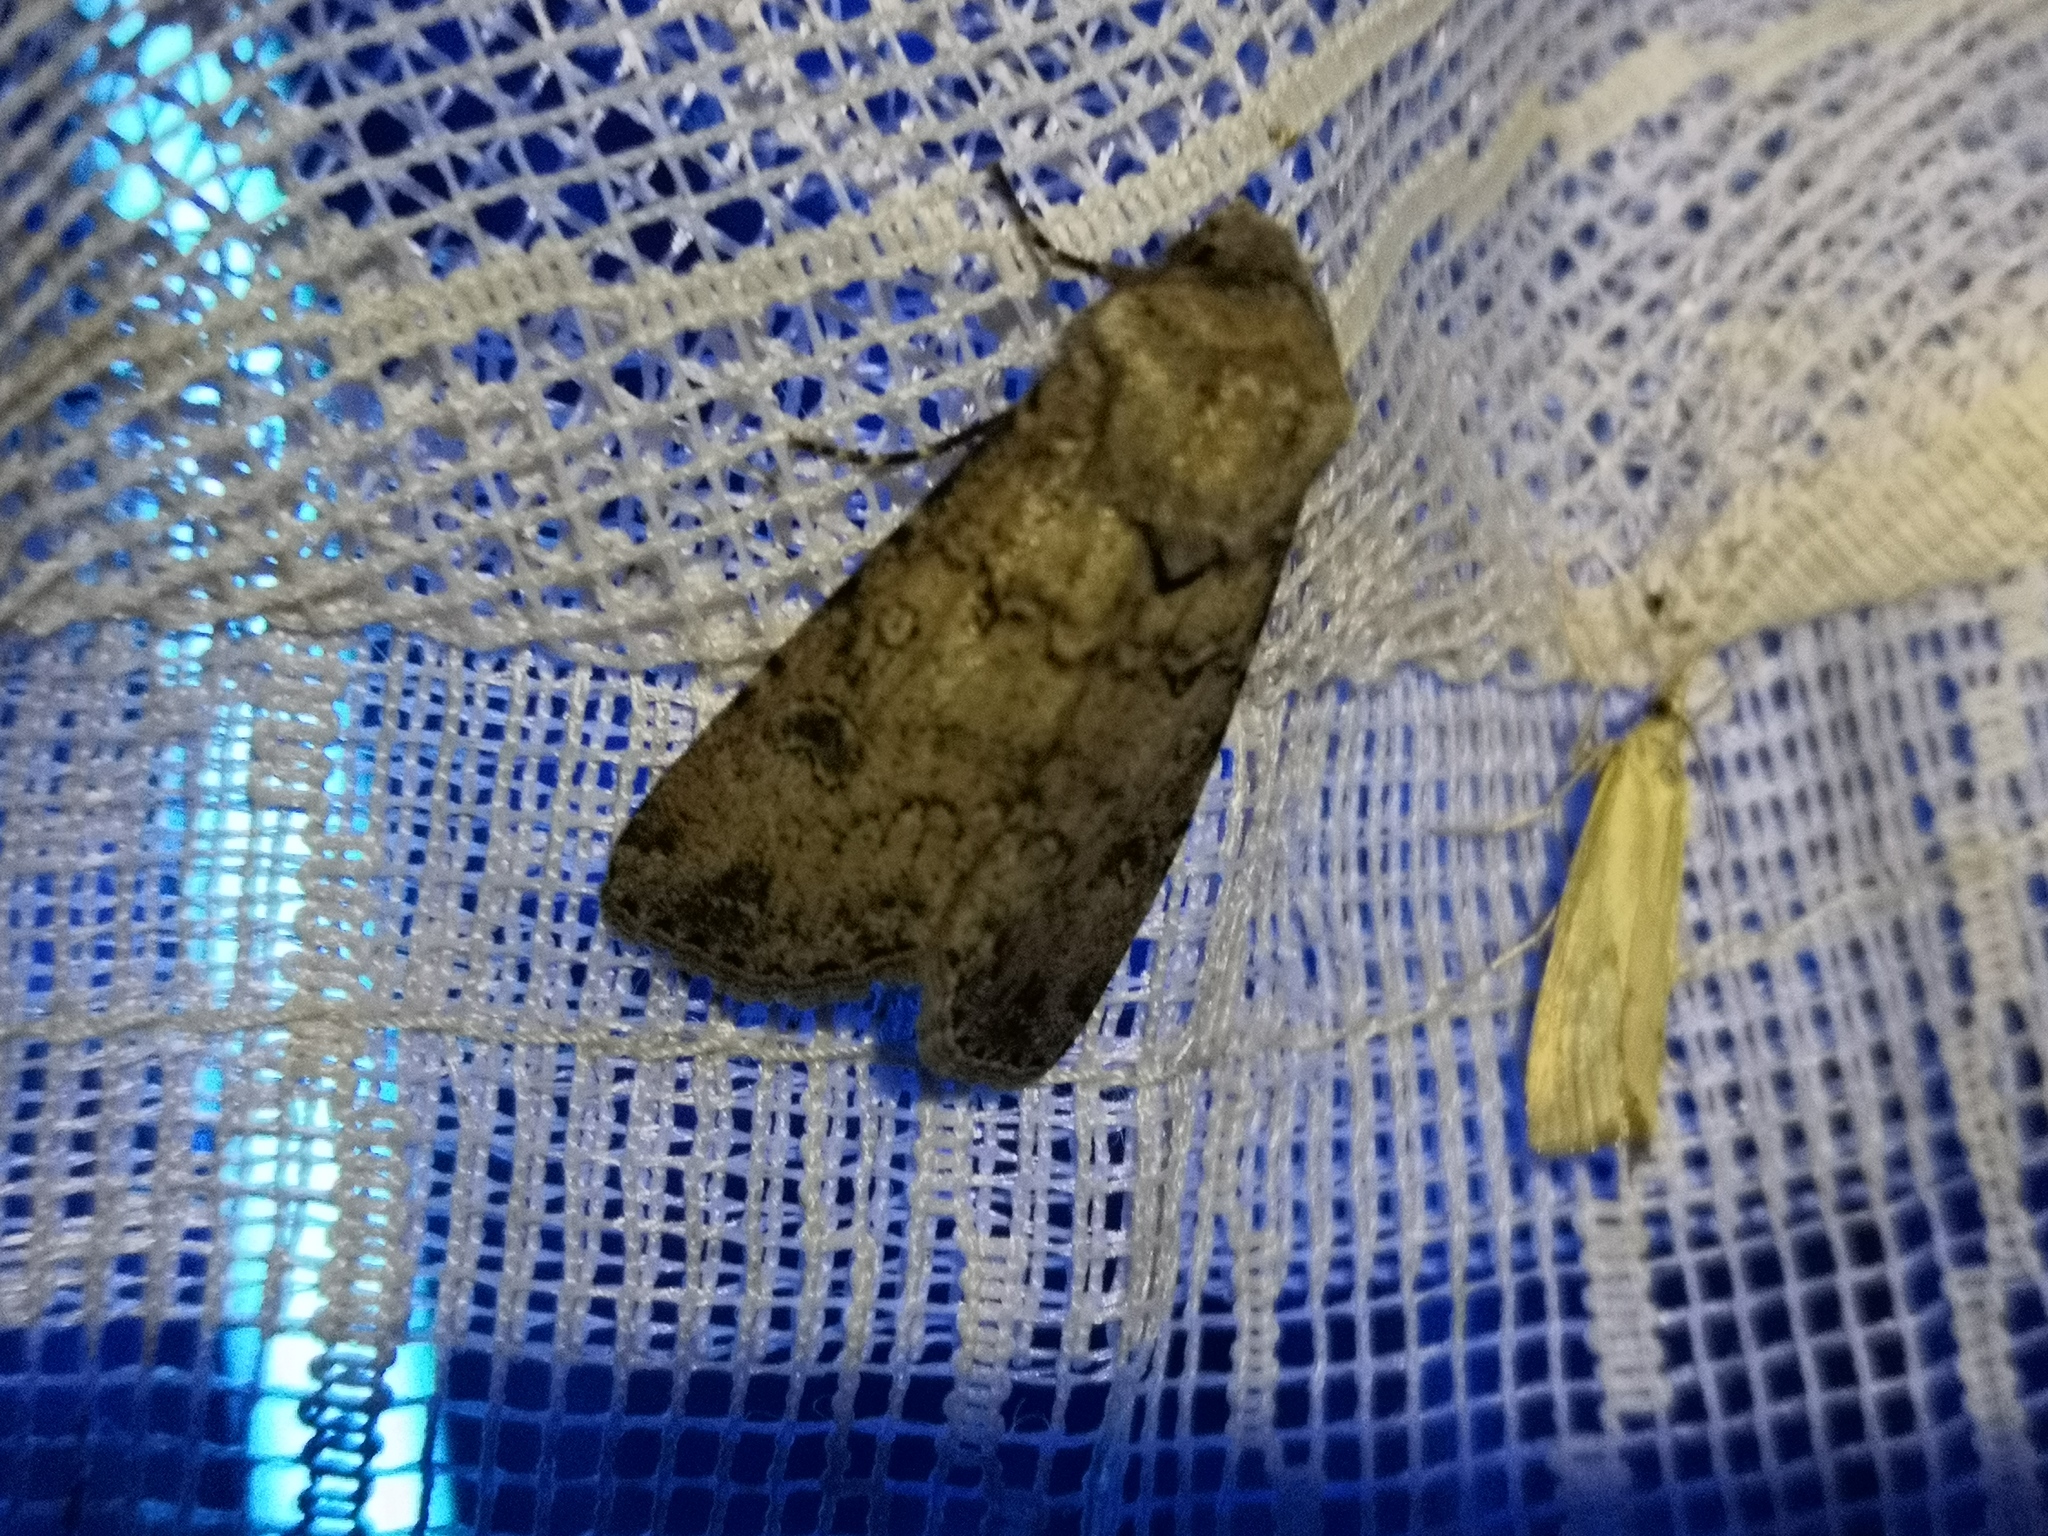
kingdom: Animalia
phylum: Arthropoda
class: Insecta
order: Lepidoptera
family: Noctuidae
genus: Agrotis
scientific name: Agrotis segetum
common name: Turnip moth
